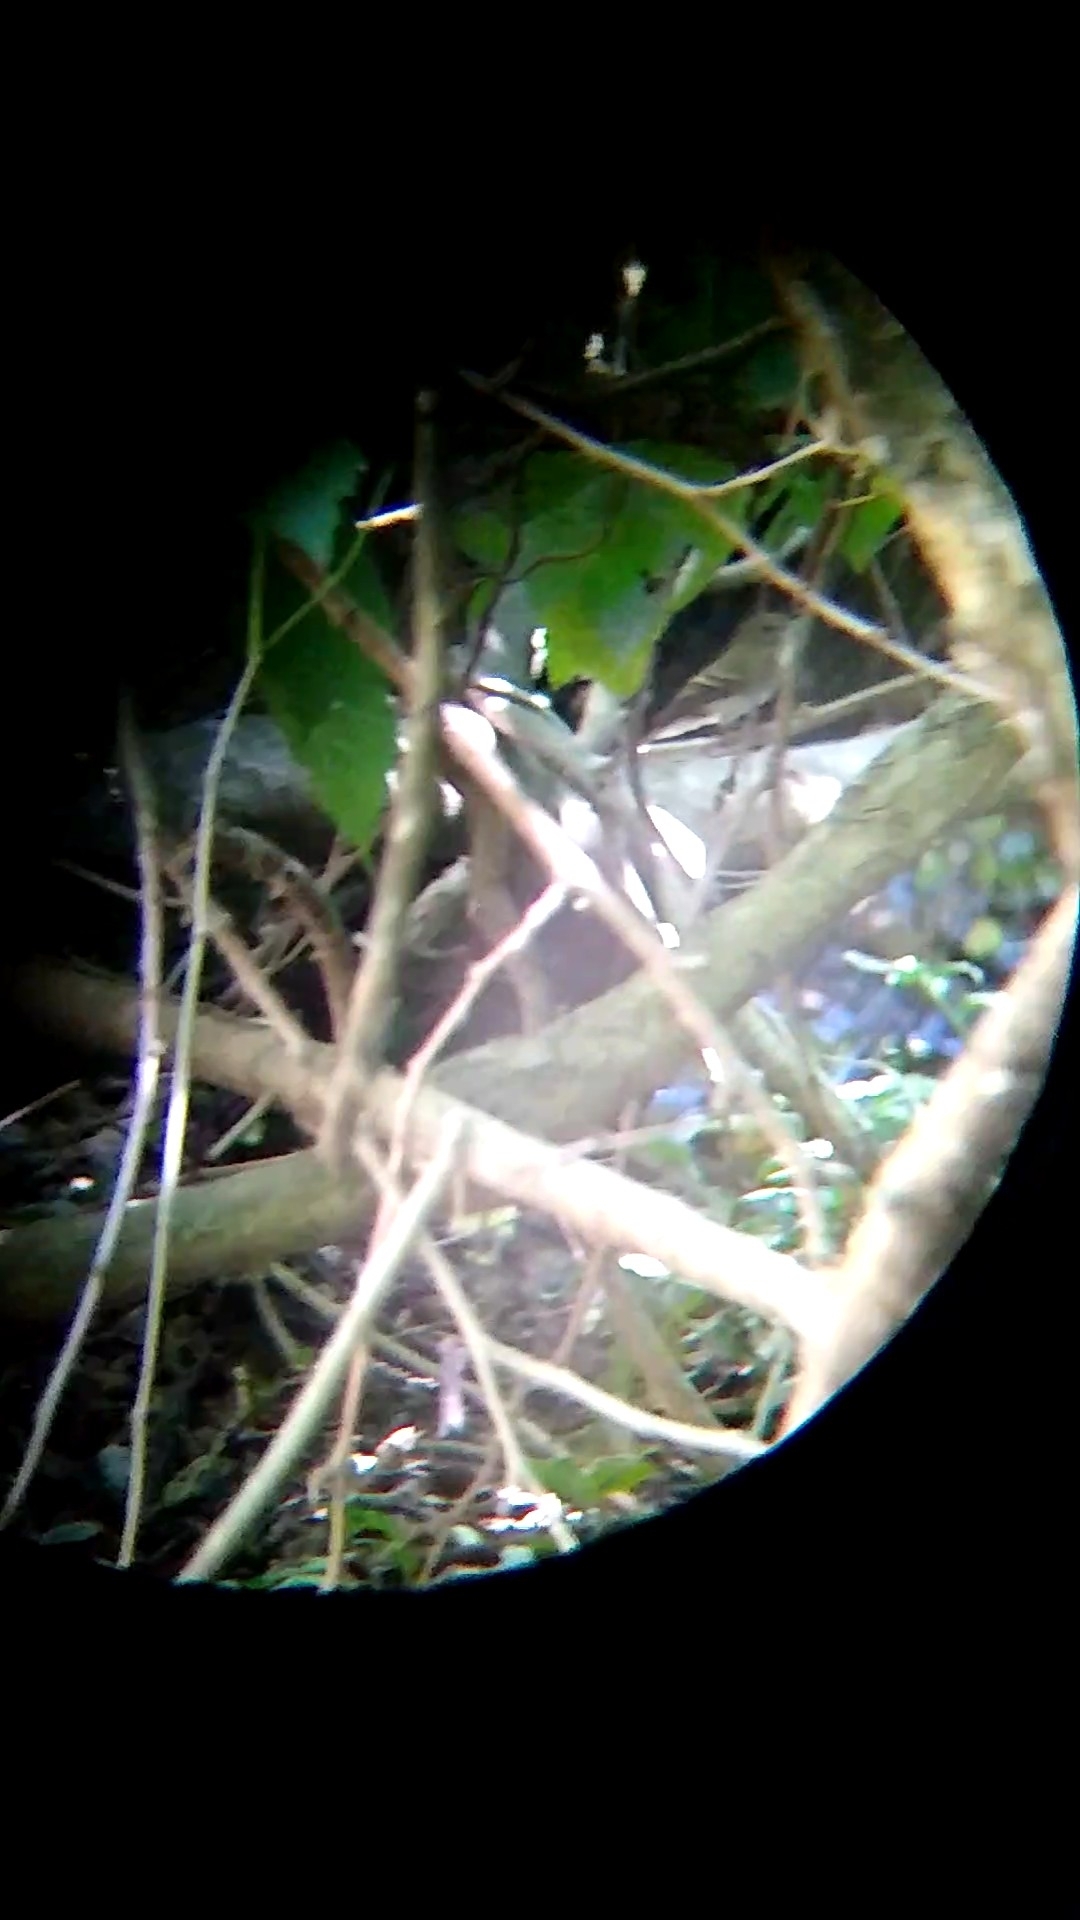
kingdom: Animalia
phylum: Chordata
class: Aves
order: Passeriformes
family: Tyrannidae
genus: Lathrotriccus
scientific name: Lathrotriccus euleri
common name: Euler's flycatcher
